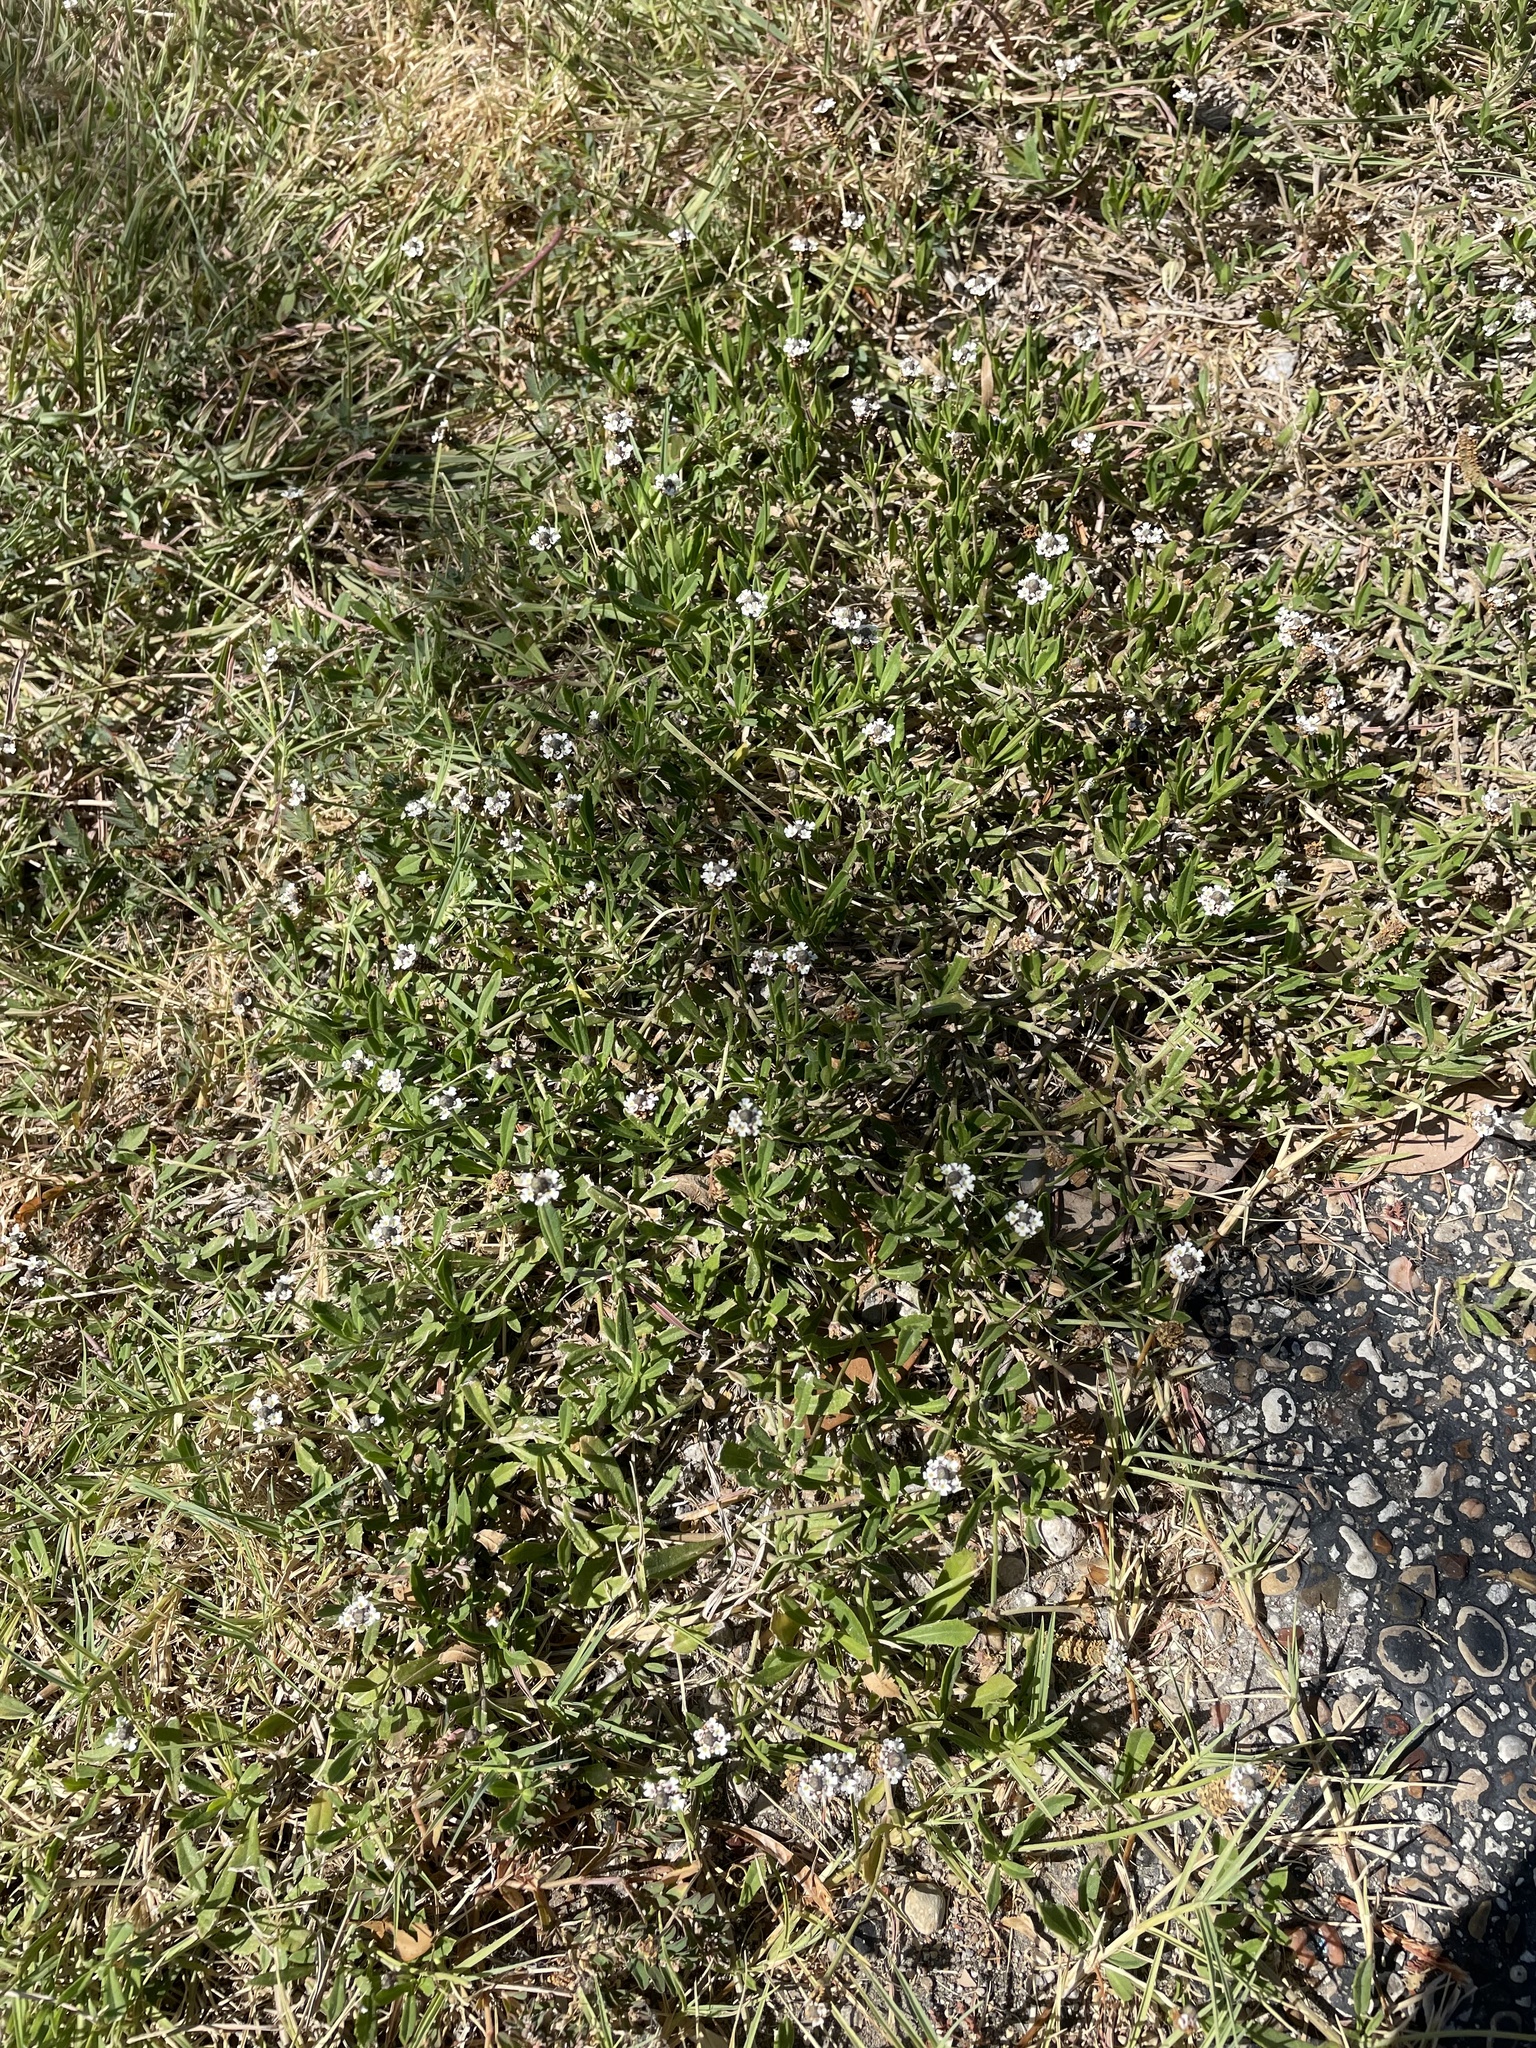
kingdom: Plantae
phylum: Tracheophyta
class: Magnoliopsida
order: Lamiales
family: Verbenaceae
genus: Phyla
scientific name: Phyla nodiflora
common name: Frogfruit
